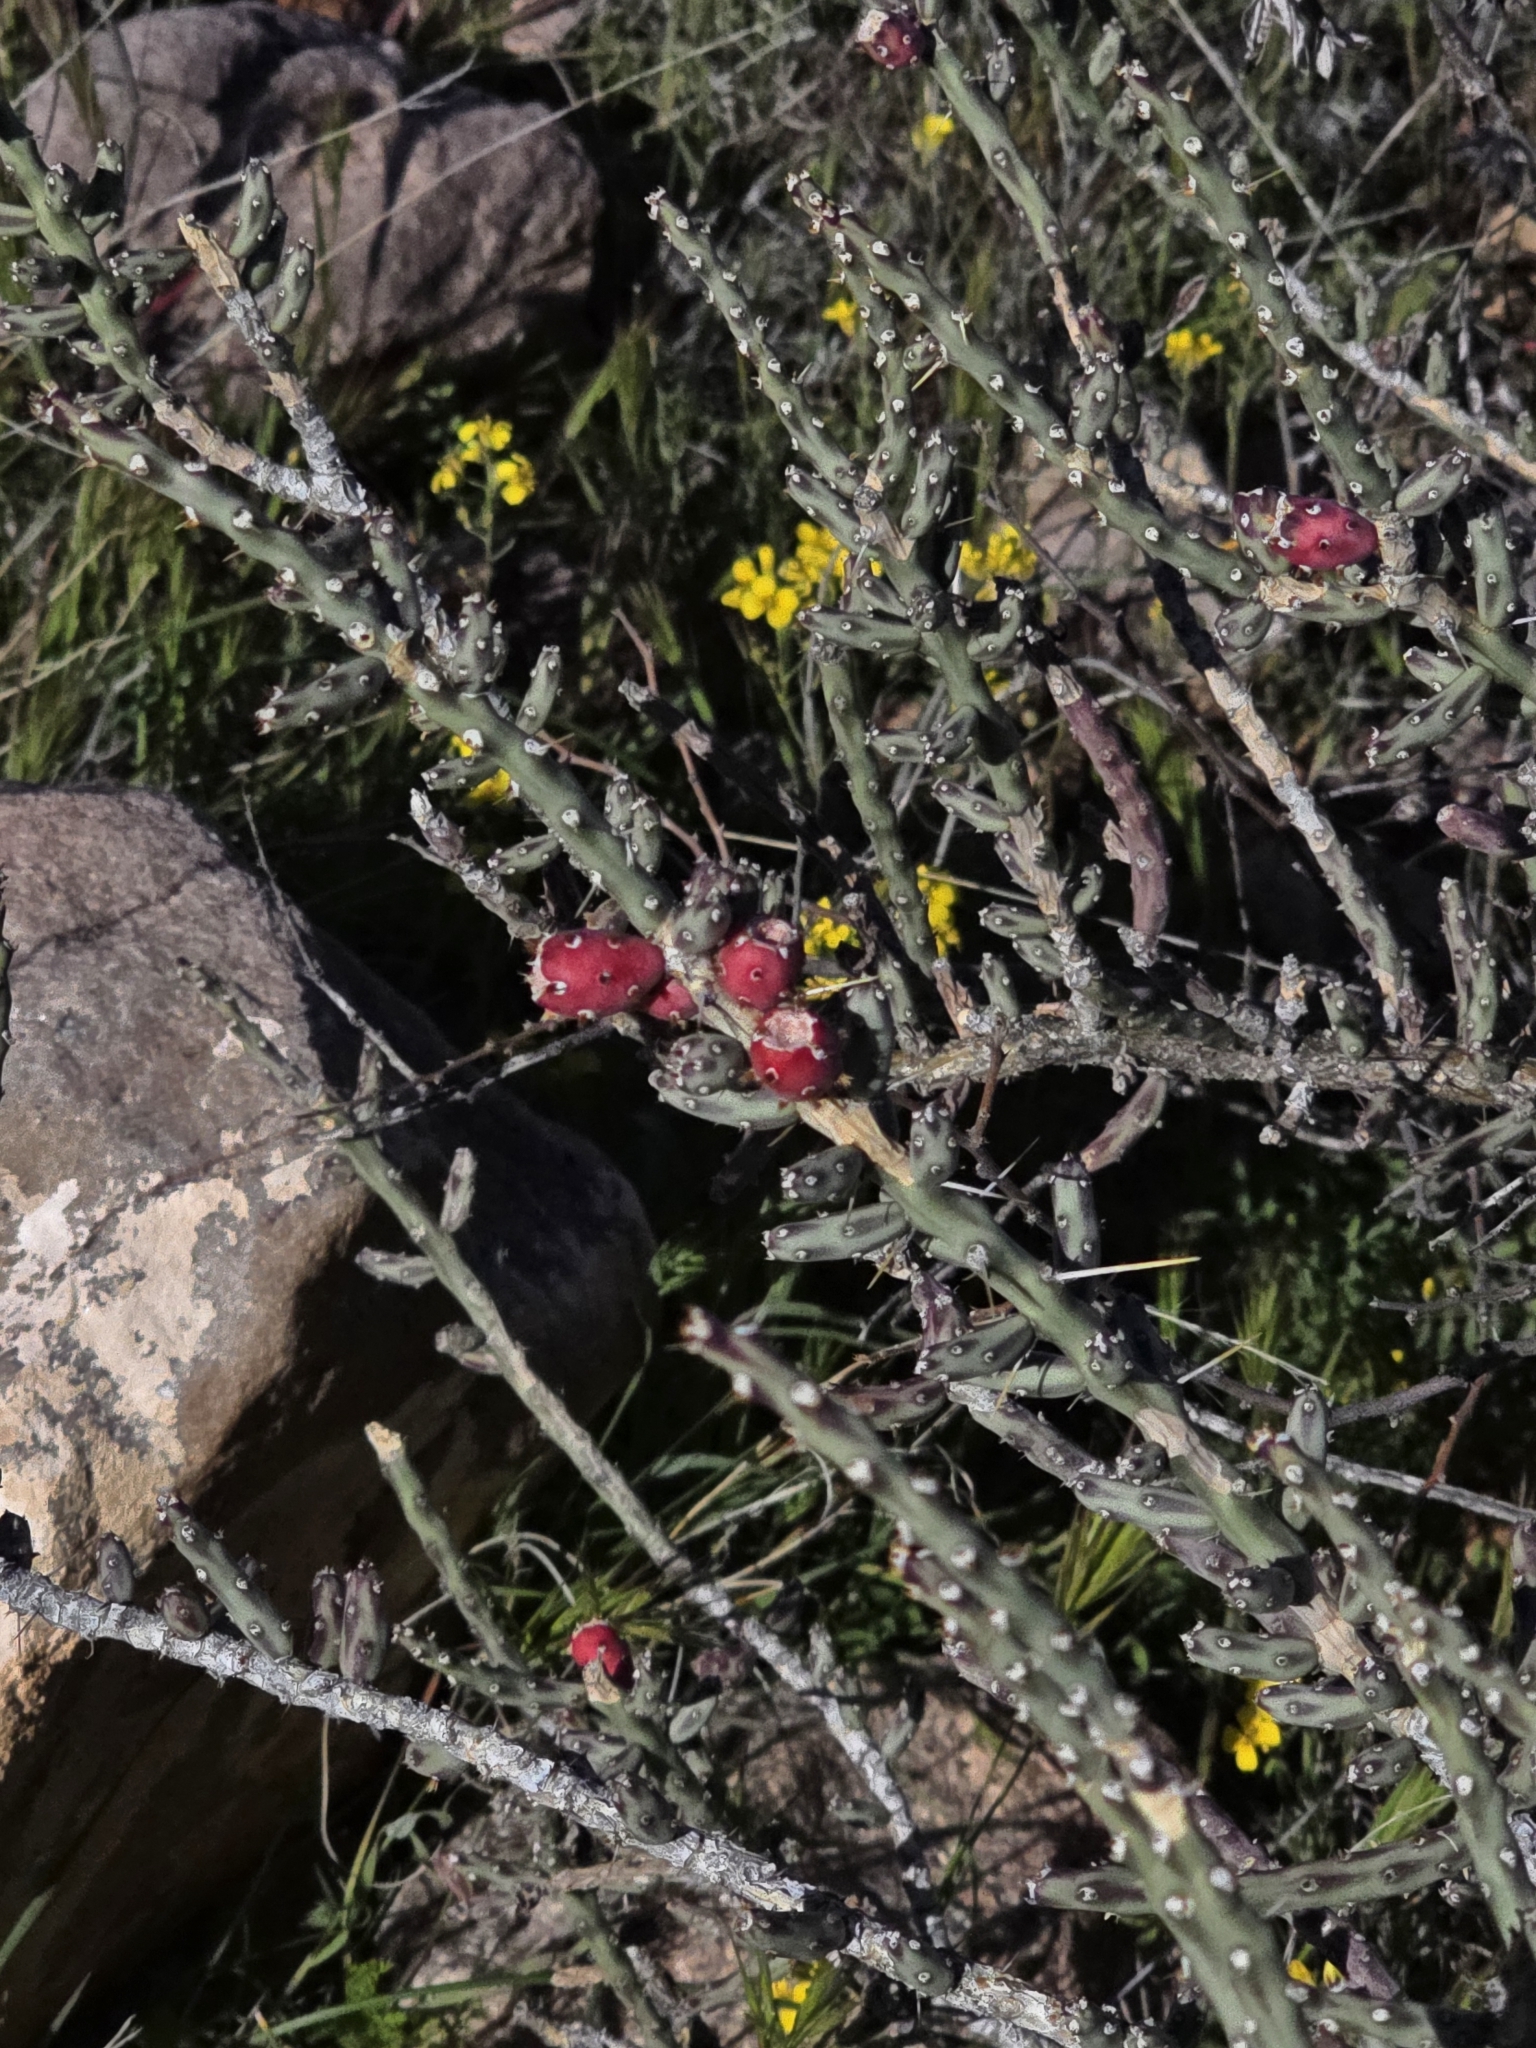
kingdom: Plantae
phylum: Tracheophyta
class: Magnoliopsida
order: Caryophyllales
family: Cactaceae
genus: Cylindropuntia
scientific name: Cylindropuntia leptocaulis
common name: Christmas cactus
